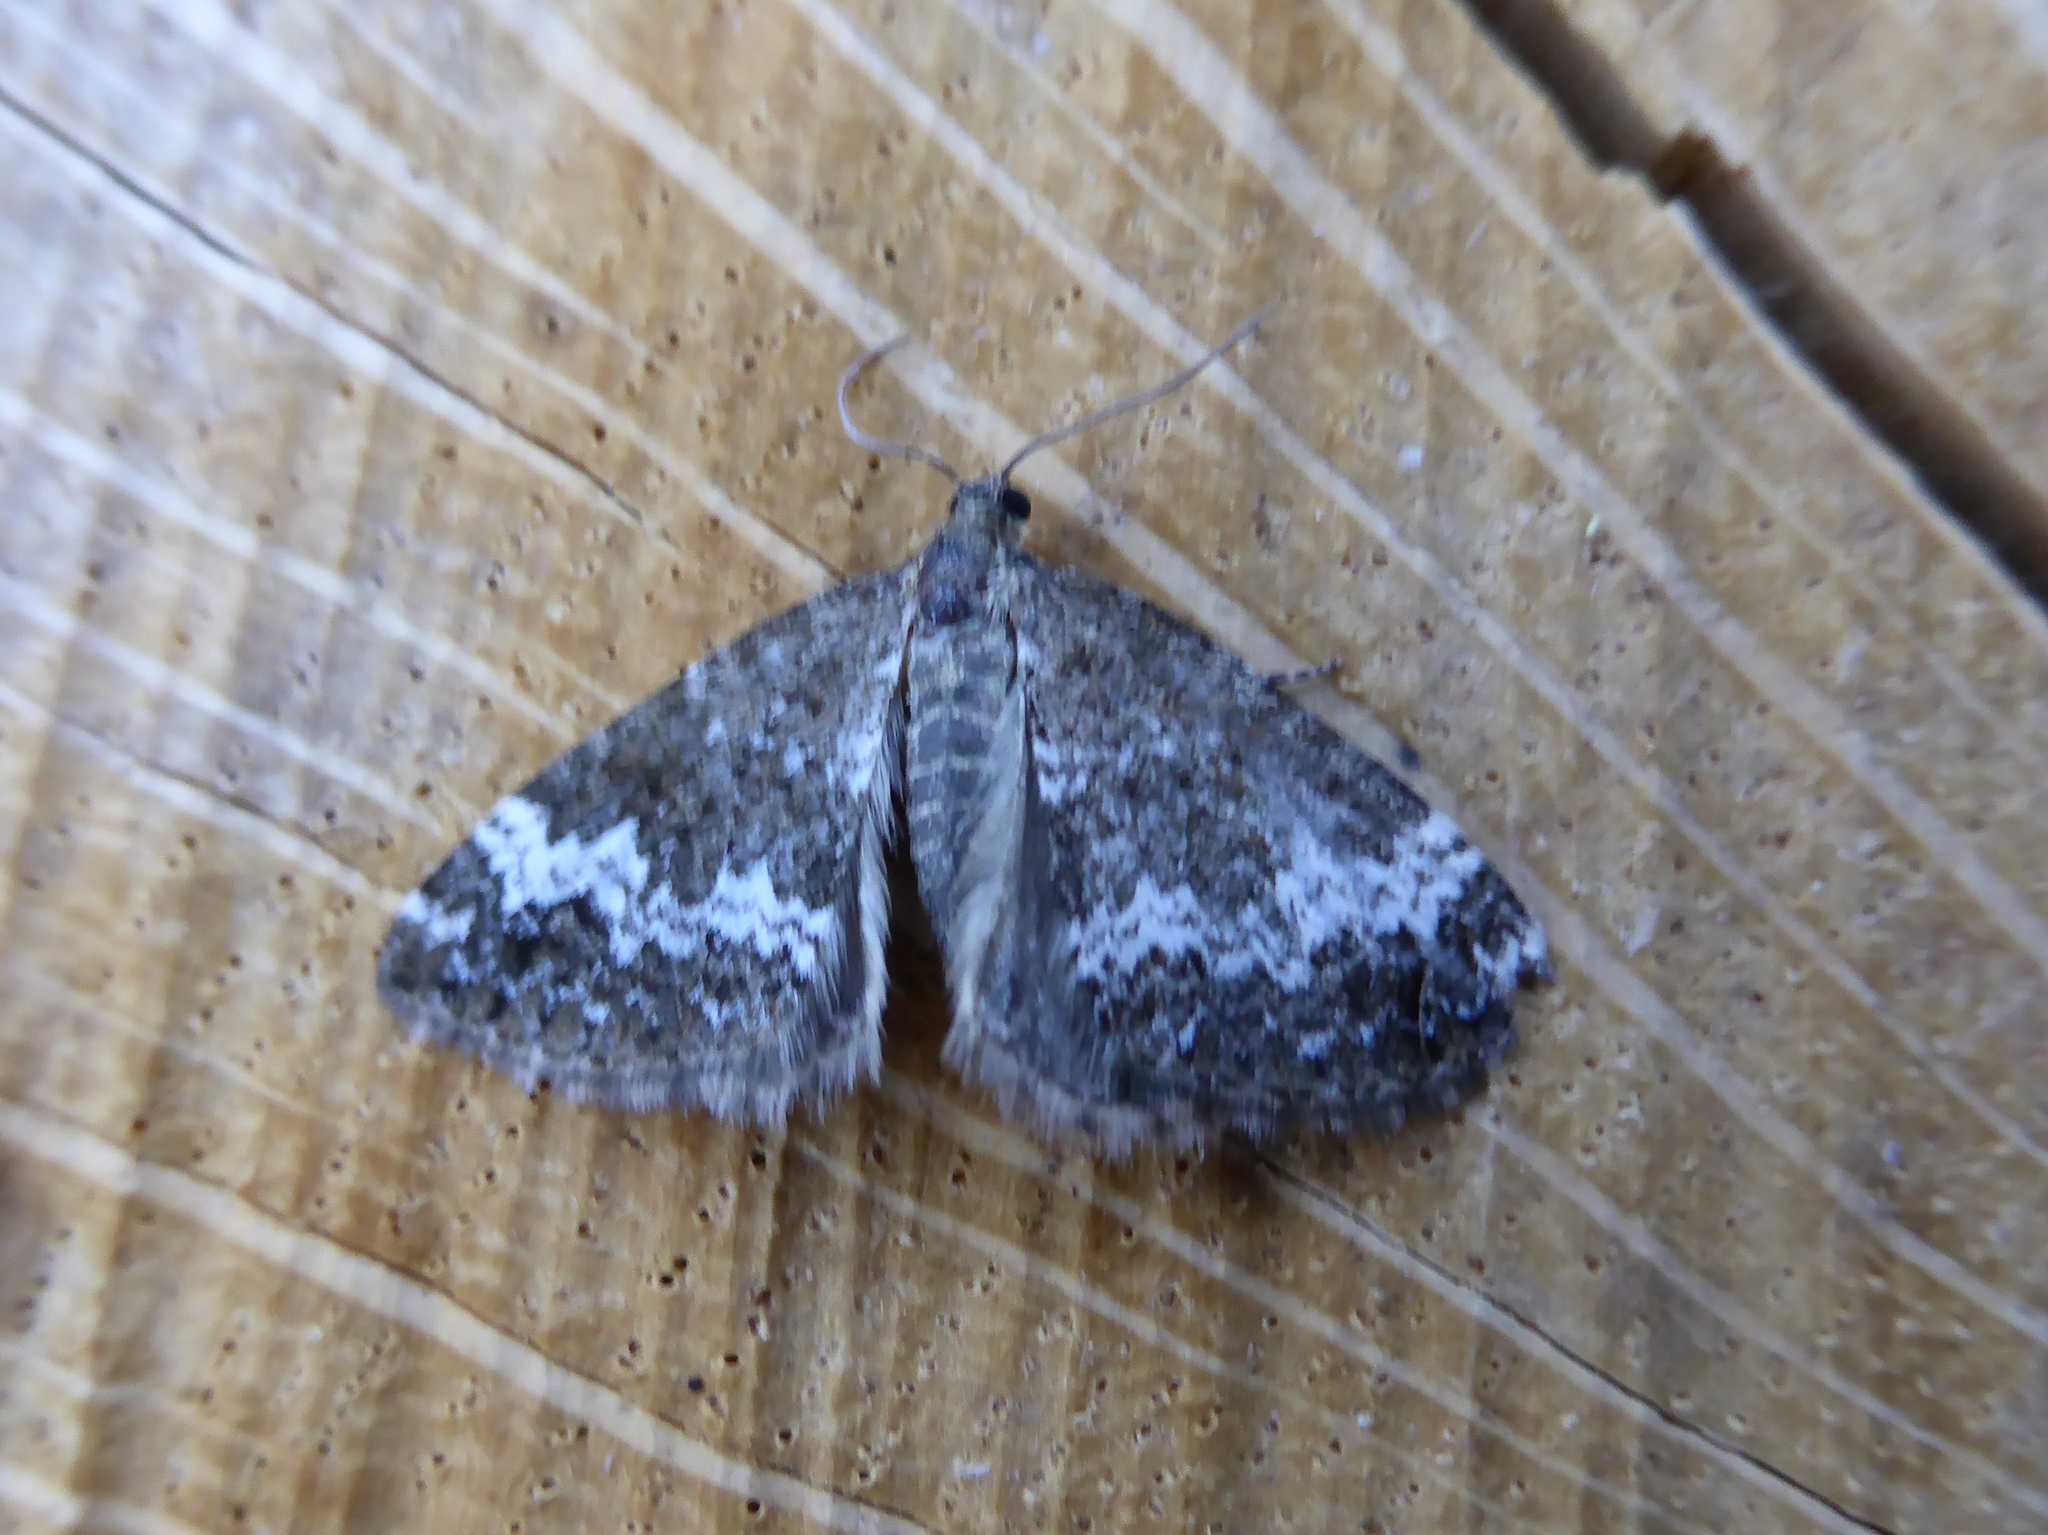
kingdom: Animalia
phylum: Arthropoda
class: Insecta
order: Lepidoptera
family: Geometridae
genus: Perizoma
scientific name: Perizoma alchemillata
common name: Small rivulet
